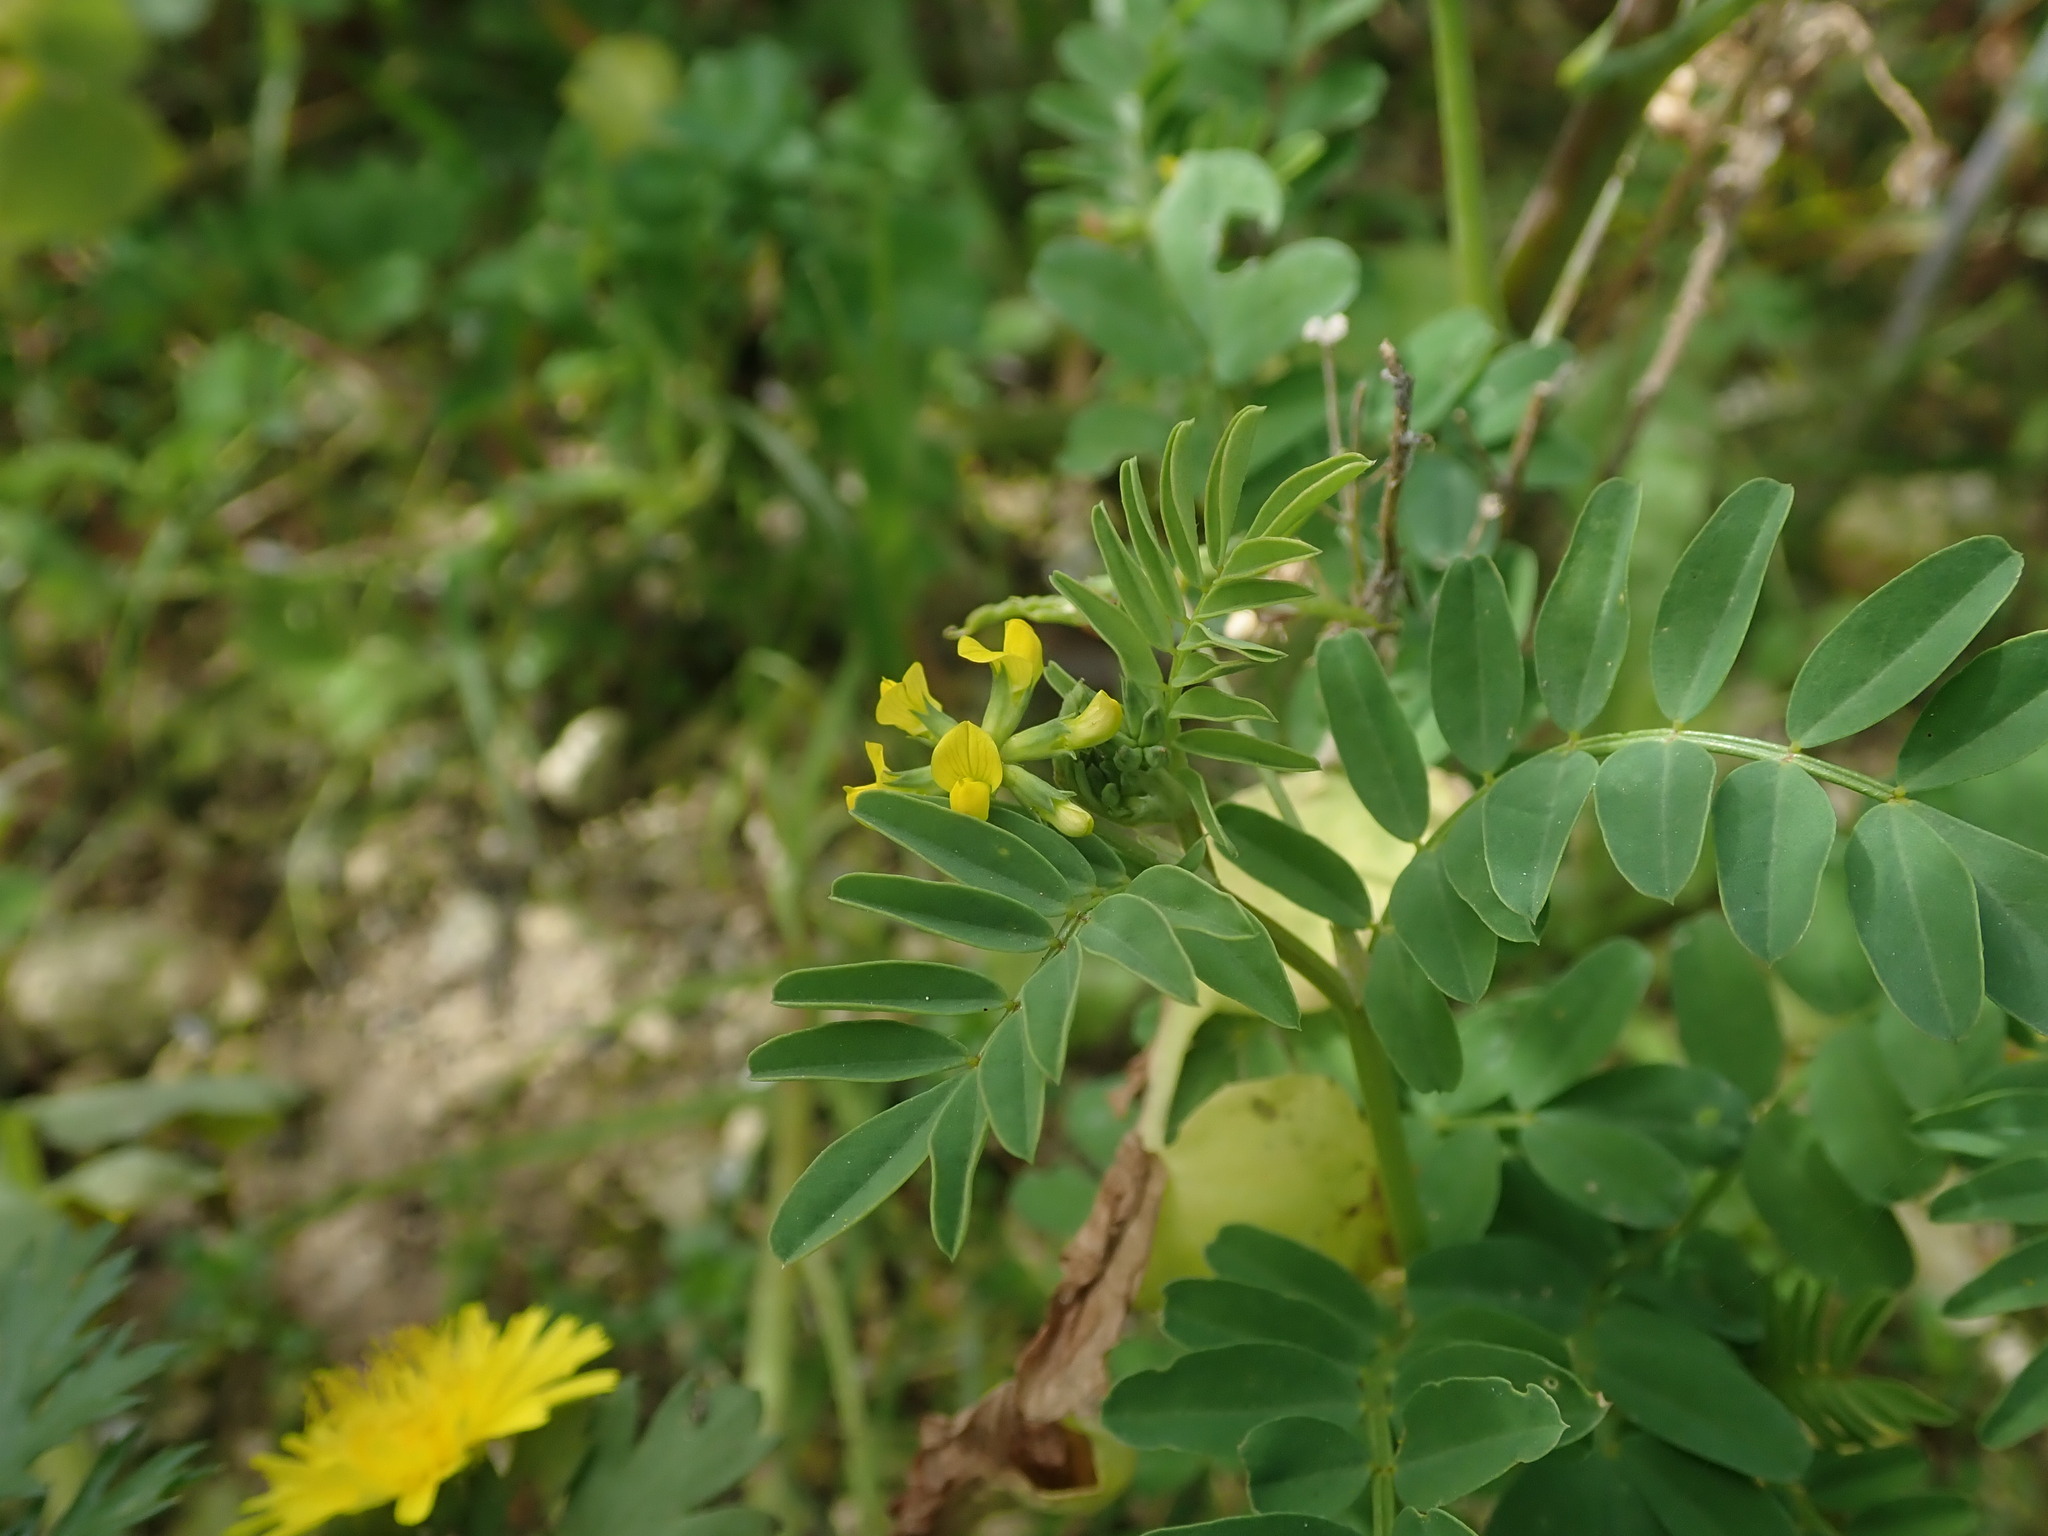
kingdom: Plantae
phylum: Tracheophyta
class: Magnoliopsida
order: Fabales
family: Fabaceae
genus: Hippocrepis
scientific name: Hippocrepis multisiliquosa
